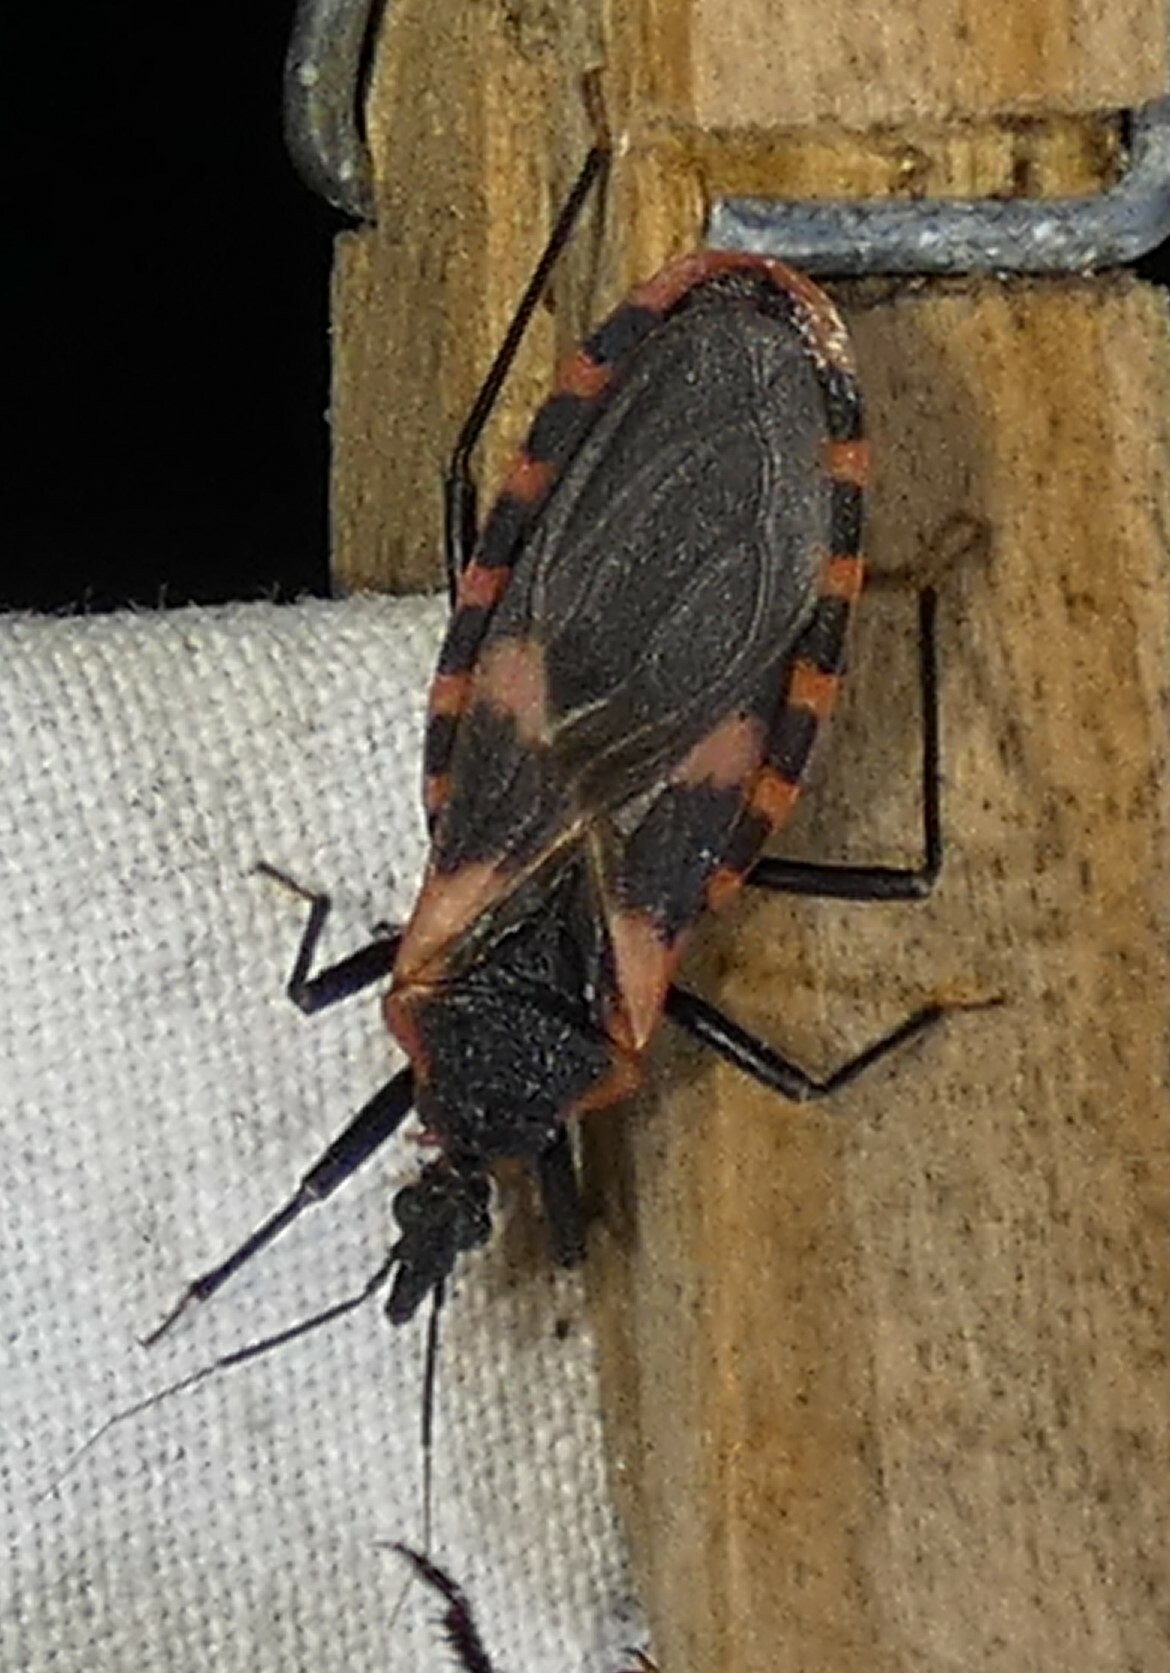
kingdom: Animalia
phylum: Arthropoda
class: Insecta
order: Hemiptera
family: Reduviidae
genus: Triatoma
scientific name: Triatoma sanguisuga
